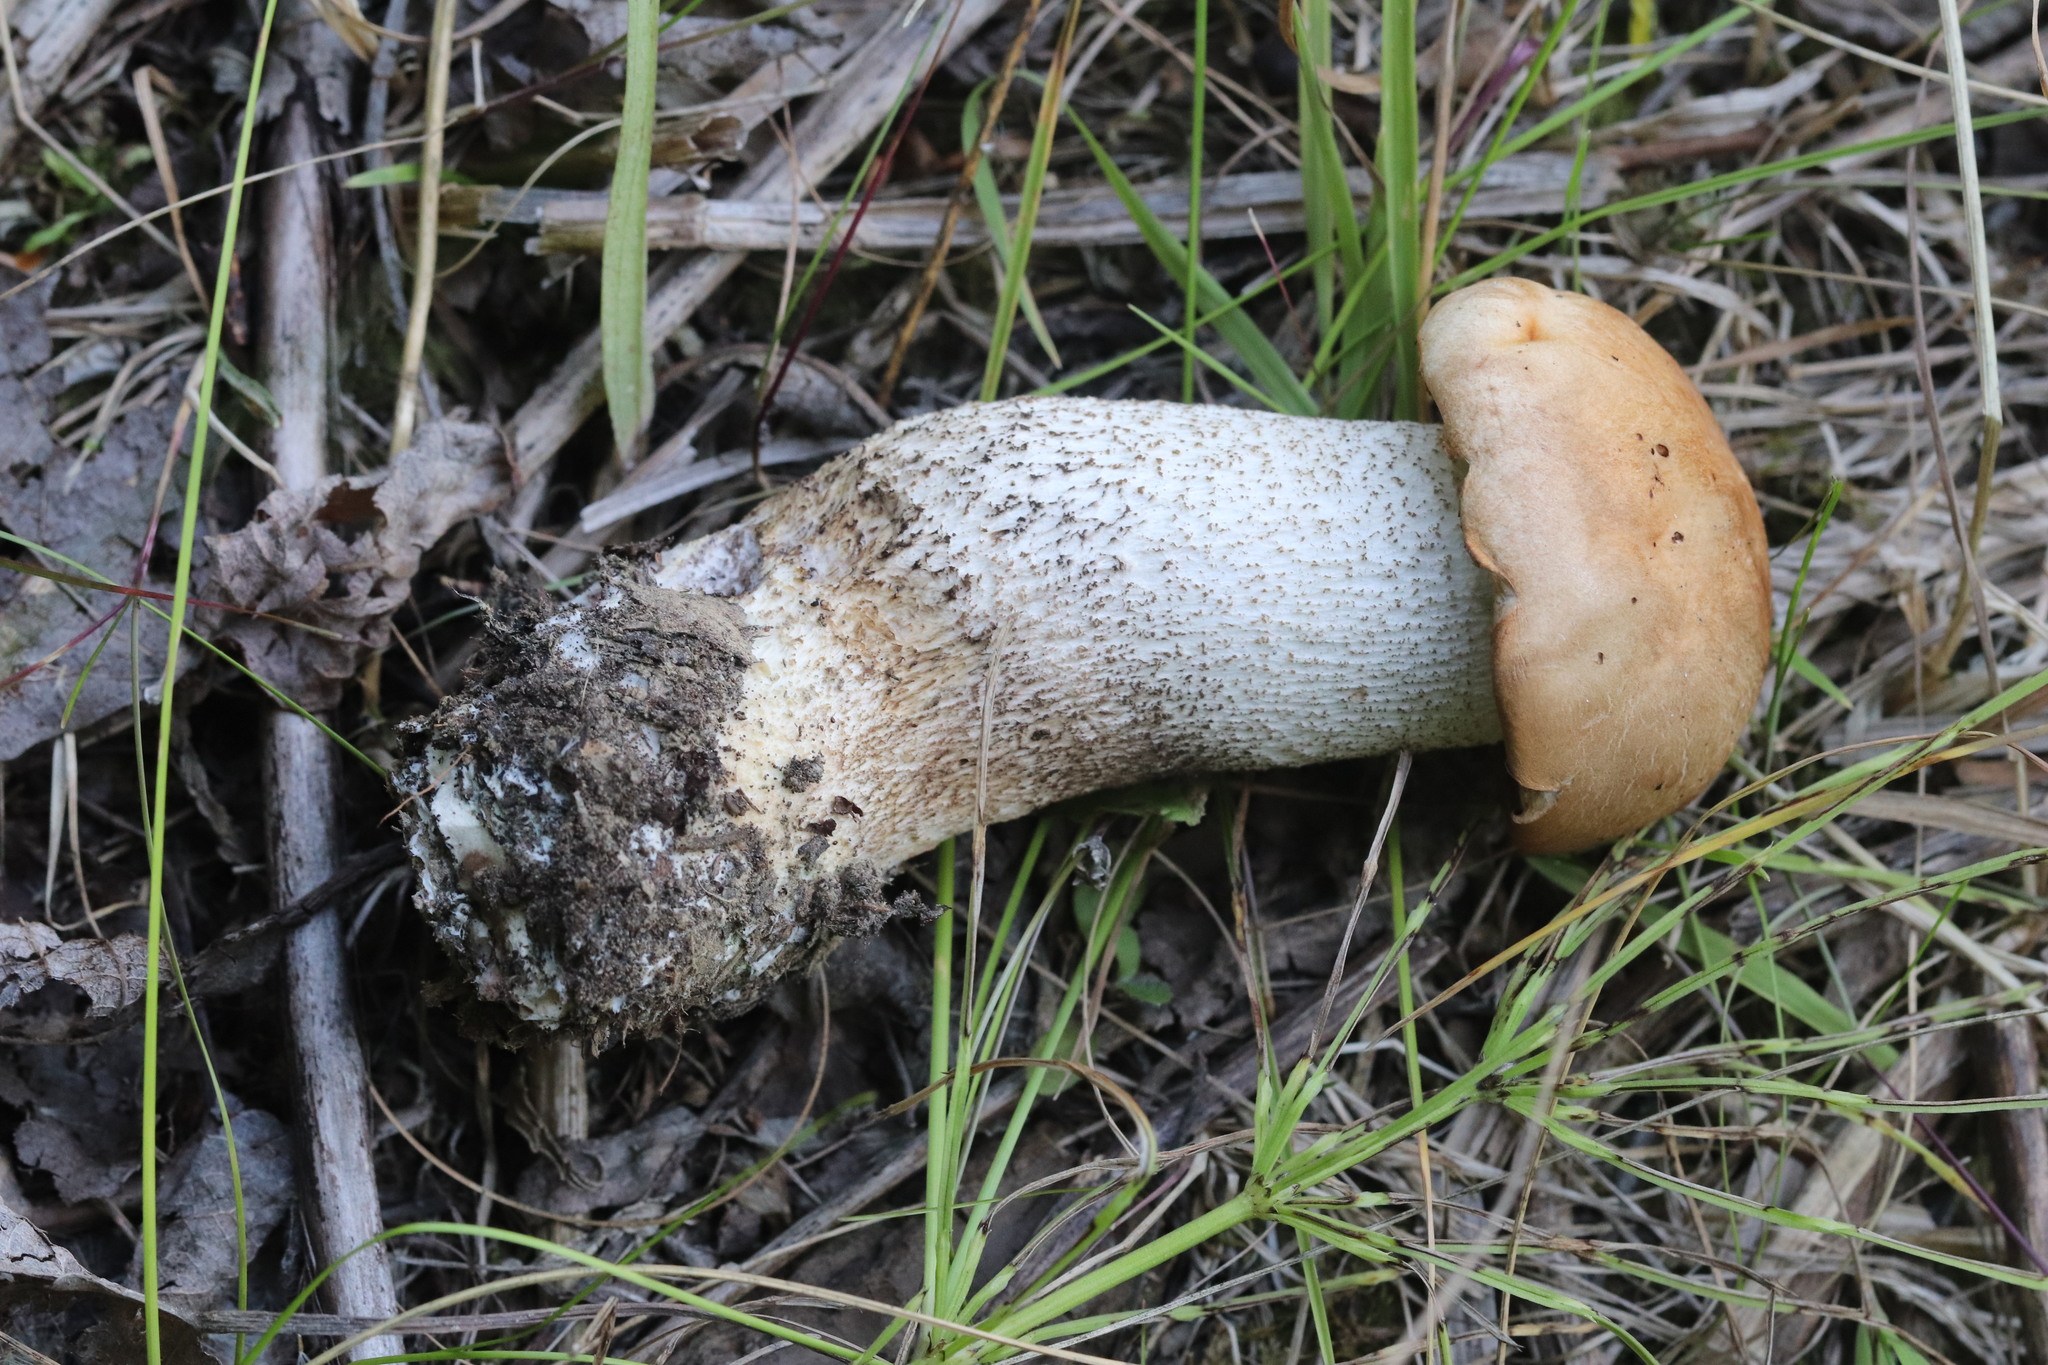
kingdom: Fungi
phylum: Basidiomycota
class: Agaricomycetes
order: Boletales
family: Boletaceae
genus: Leccinum
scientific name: Leccinum versipelle
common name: Orange birch bolete
